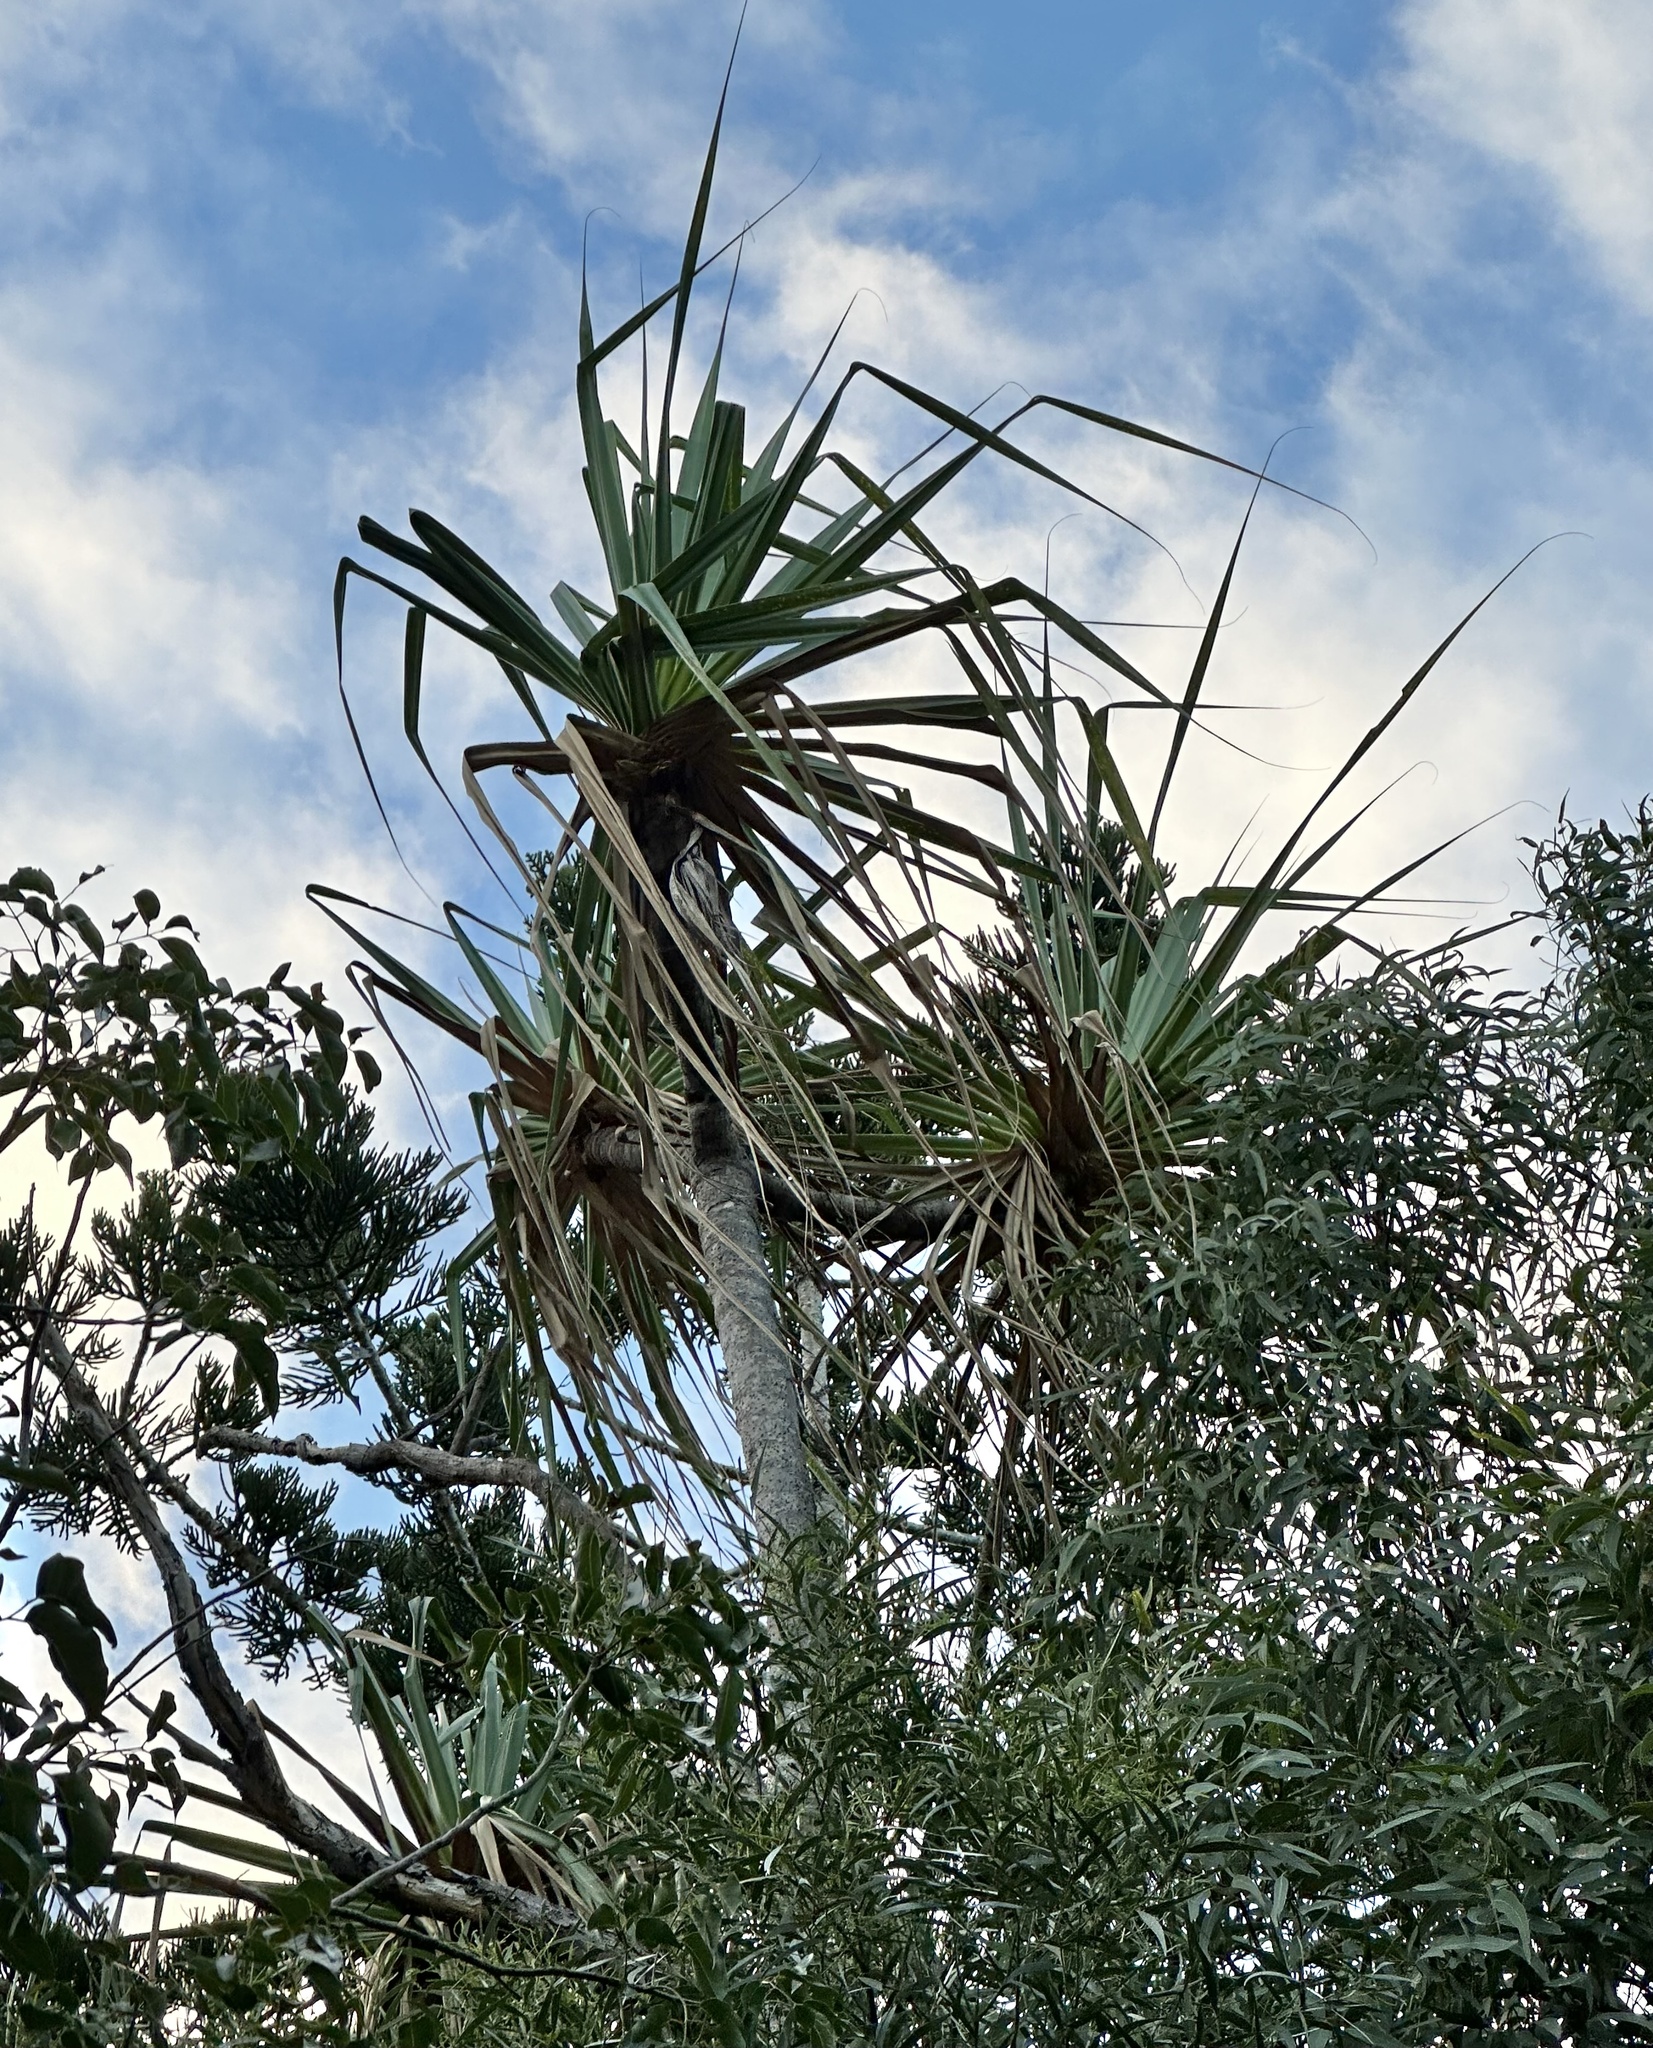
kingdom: Plantae
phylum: Tracheophyta
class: Liliopsida
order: Pandanales
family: Pandanaceae
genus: Pandanus
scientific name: Pandanus cookii
